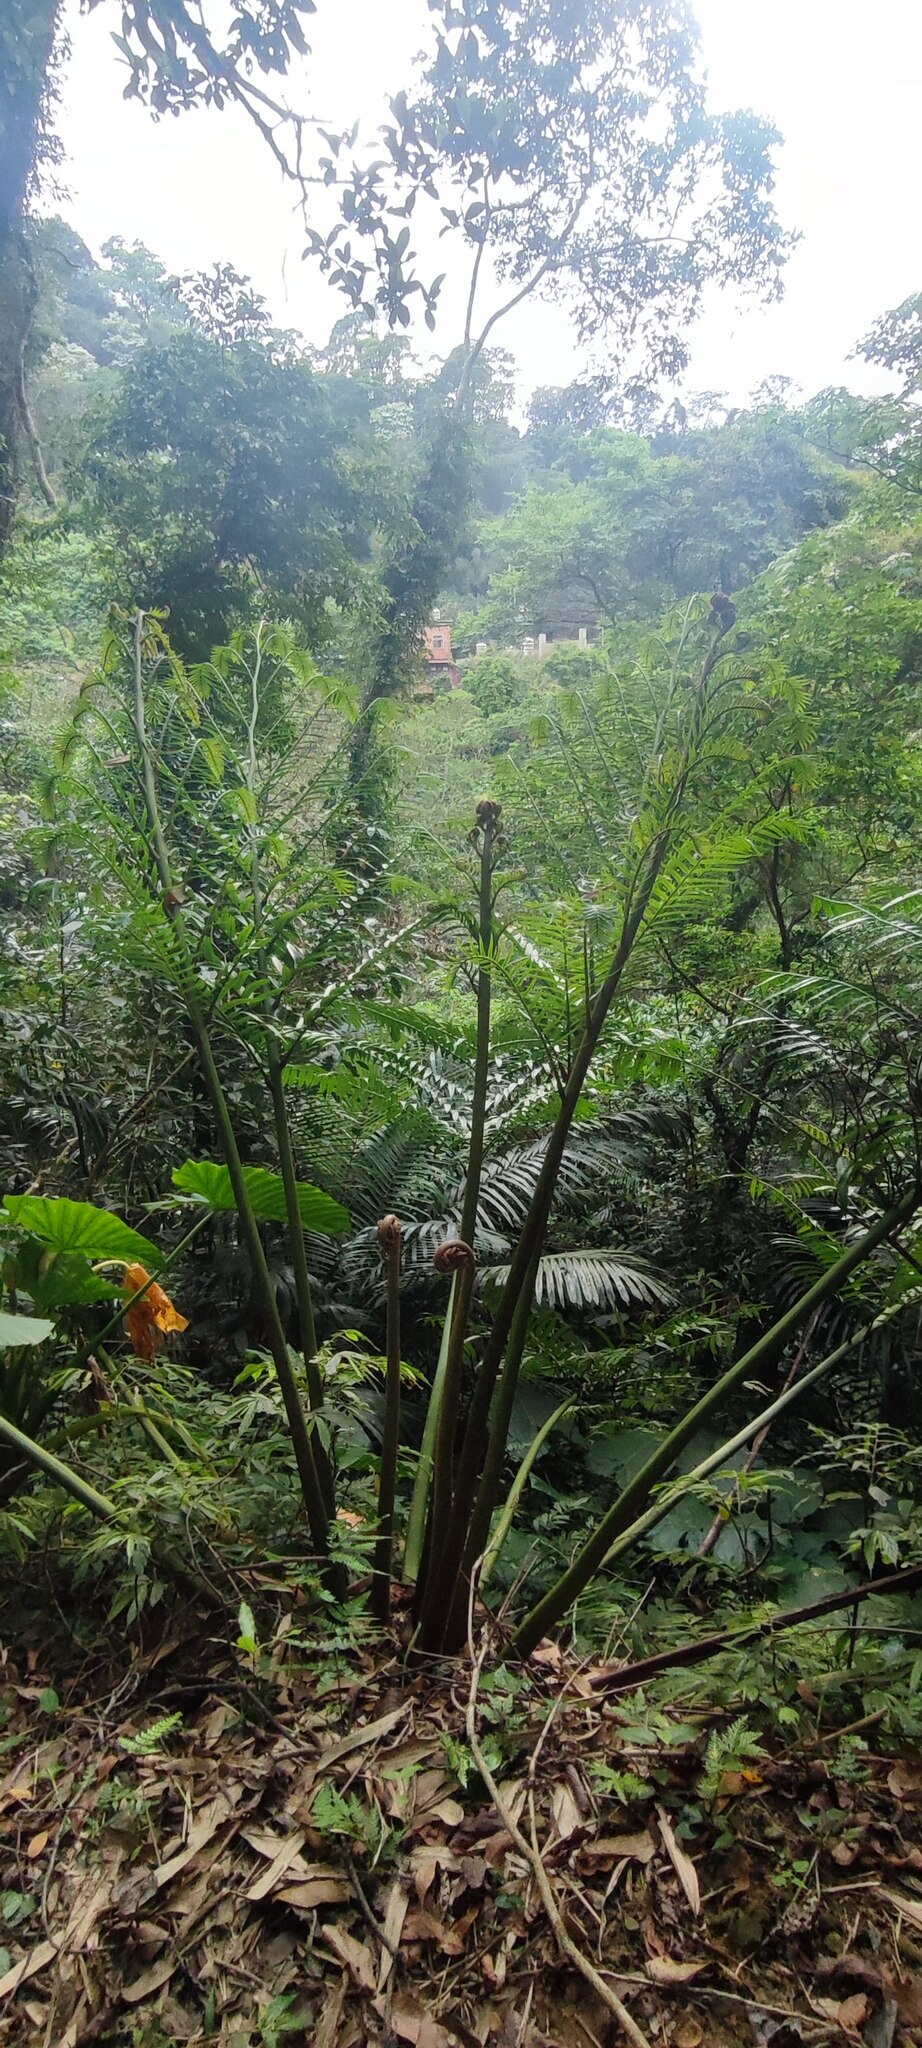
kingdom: Plantae
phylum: Tracheophyta
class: Polypodiopsida
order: Cyatheales
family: Cyatheaceae
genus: Alsophila
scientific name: Alsophila lepifera
